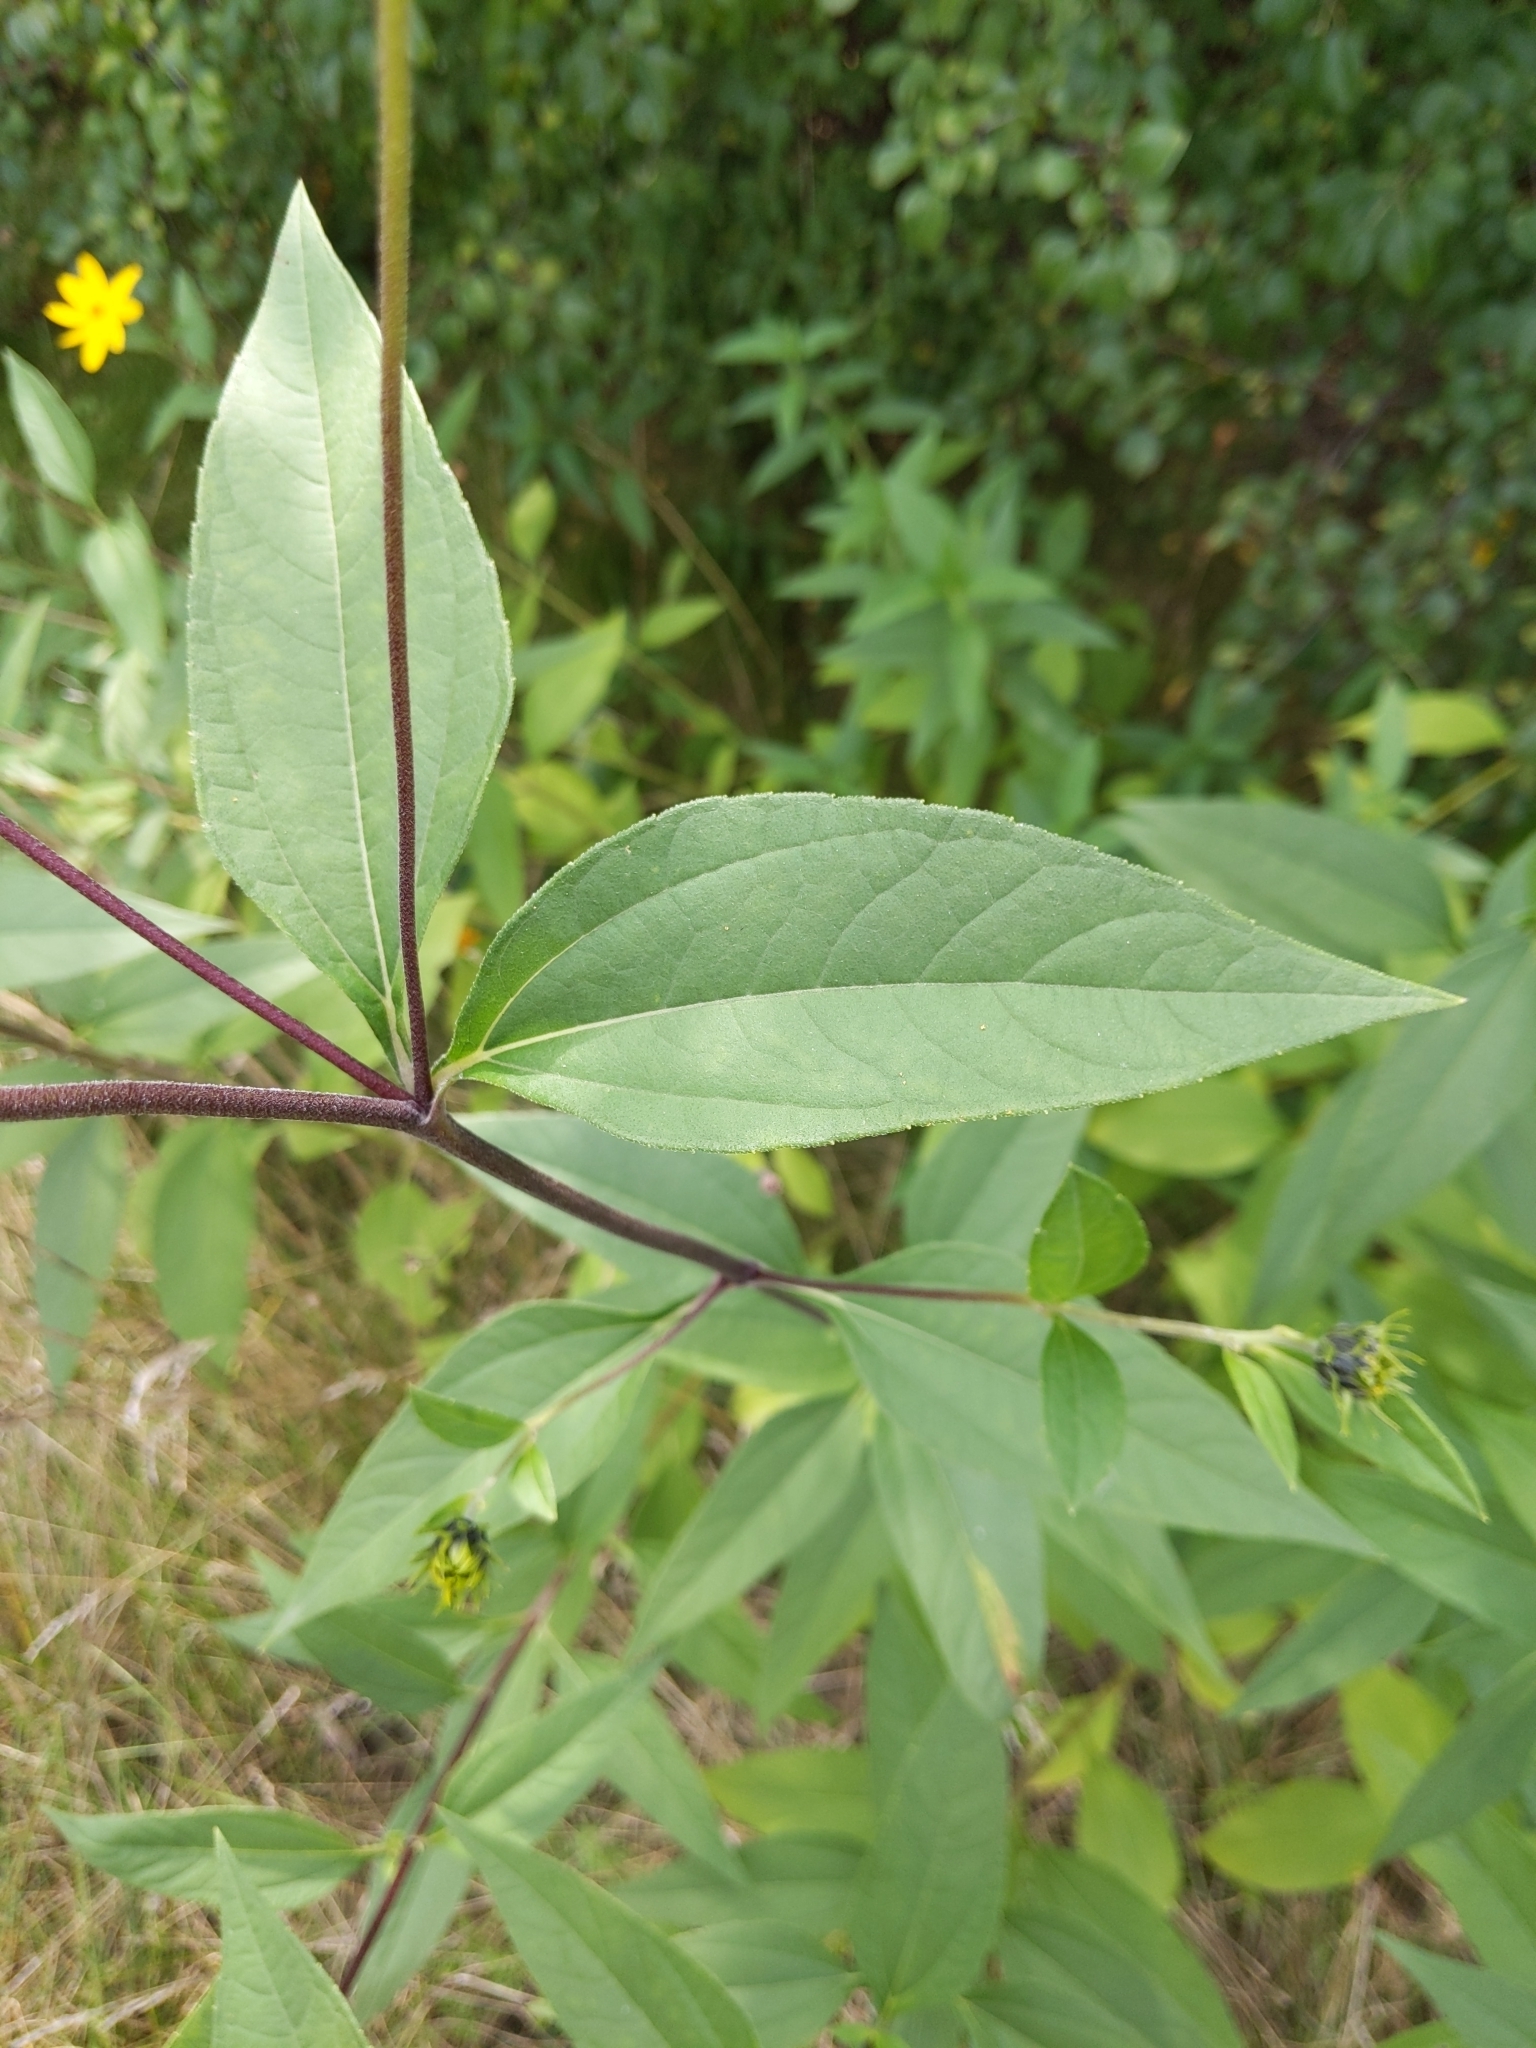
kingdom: Plantae
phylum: Tracheophyta
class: Magnoliopsida
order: Asterales
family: Asteraceae
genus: Helianthus
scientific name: Helianthus tuberosus
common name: Jerusalem artichoke
